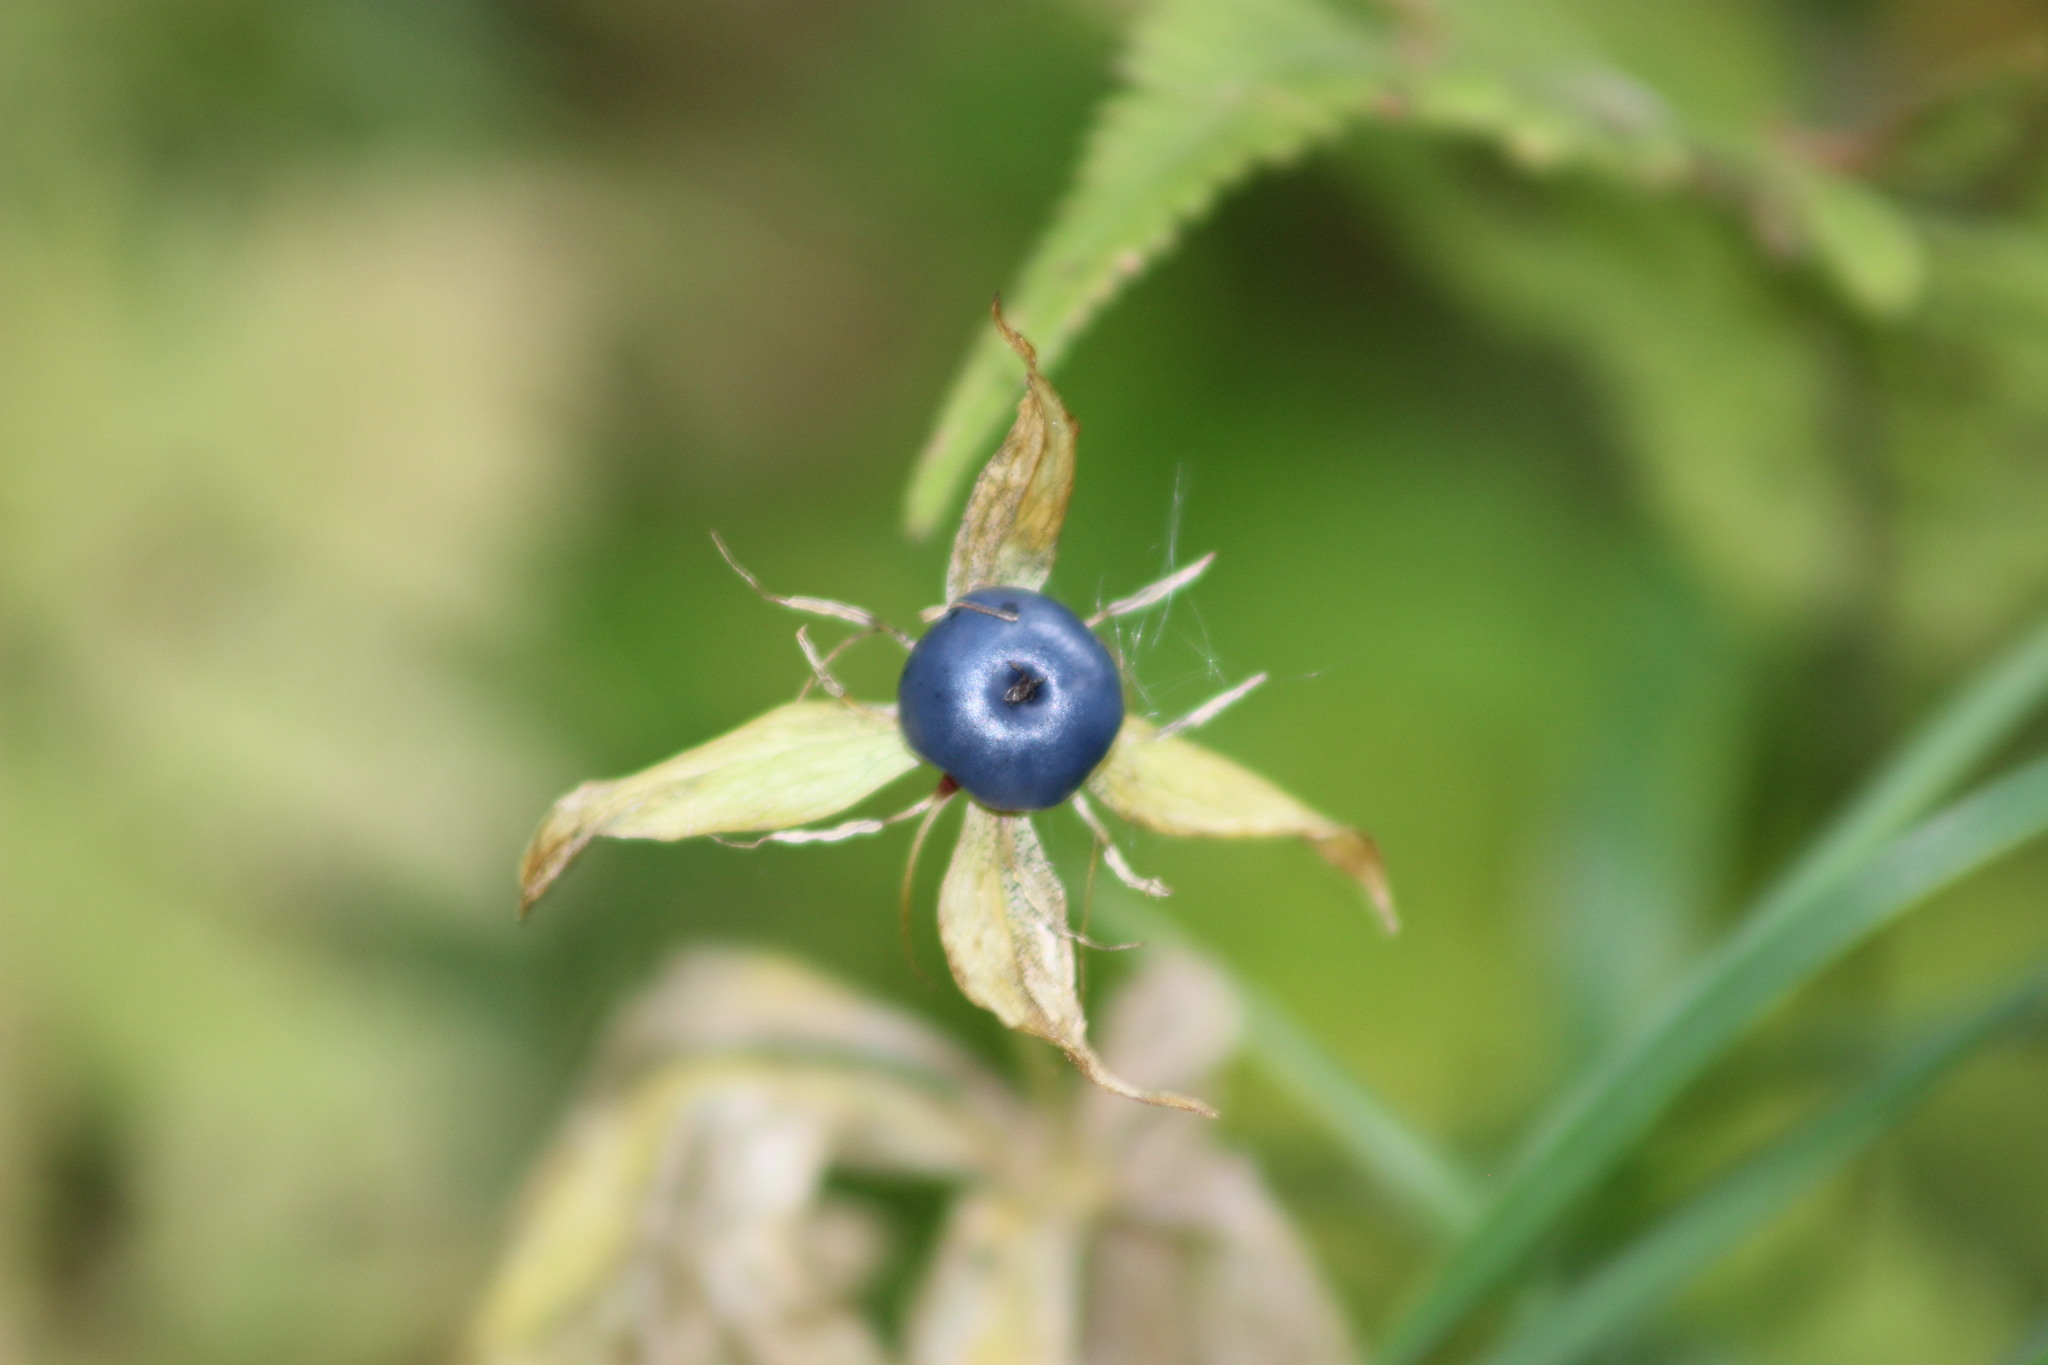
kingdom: Plantae
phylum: Tracheophyta
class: Liliopsida
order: Liliales
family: Melanthiaceae
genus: Paris
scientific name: Paris quadrifolia
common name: Herb-paris
